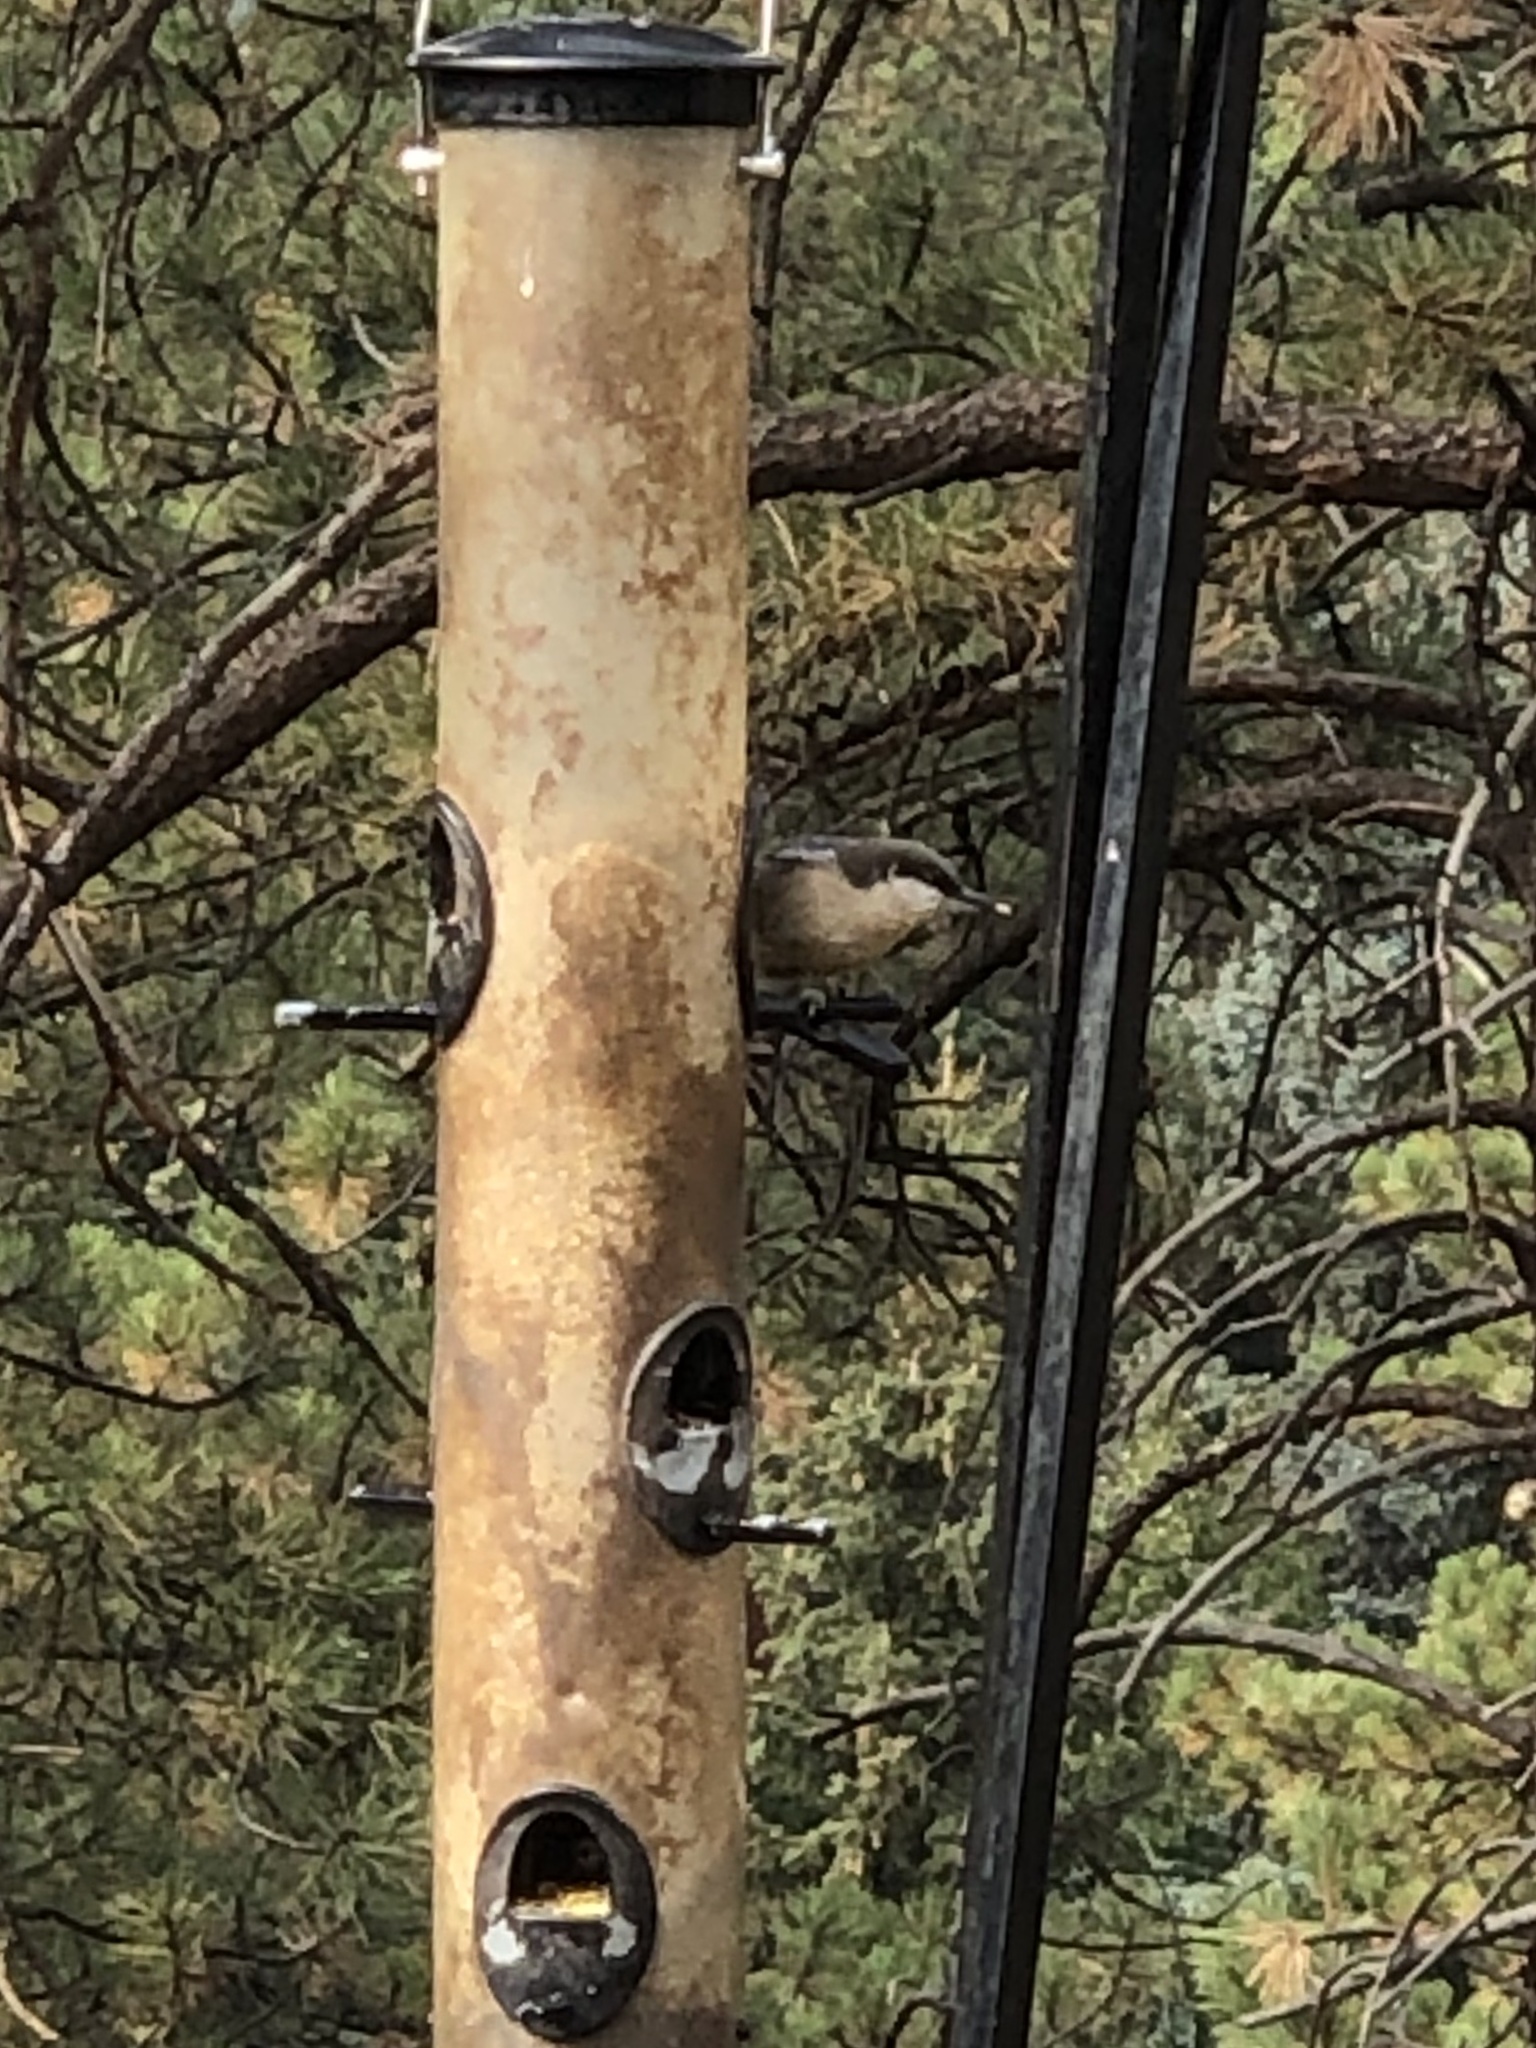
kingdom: Animalia
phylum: Chordata
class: Aves
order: Passeriformes
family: Sittidae
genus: Sitta
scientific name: Sitta pygmaea
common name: Pygmy nuthatch
